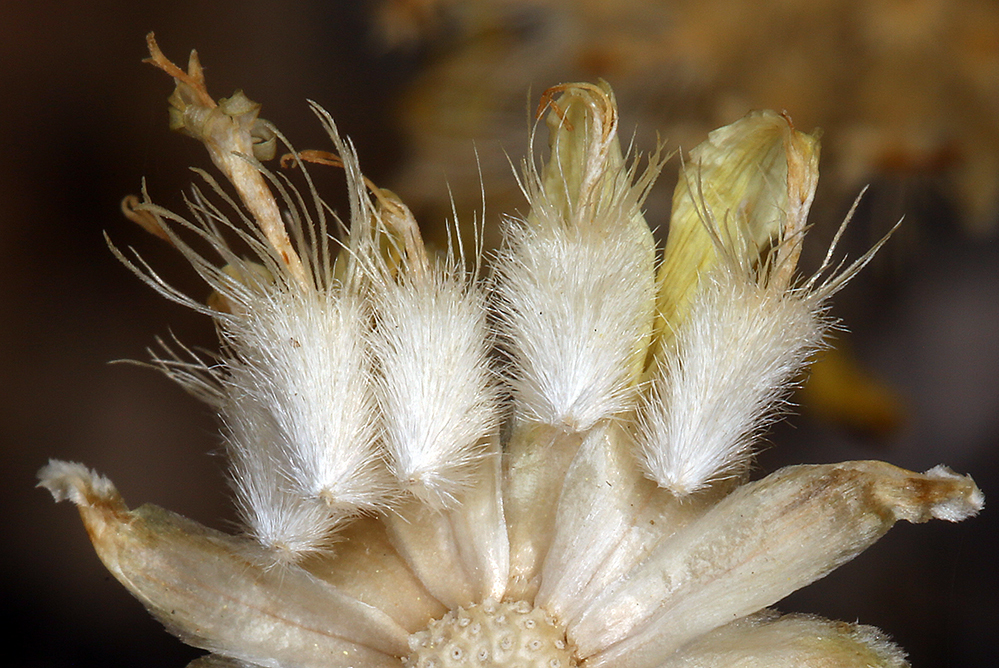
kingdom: Plantae
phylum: Tracheophyta
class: Magnoliopsida
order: Asterales
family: Asteraceae
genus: Acamptopappus
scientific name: Acamptopappus shockleyi
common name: Shockley's goldenhead
